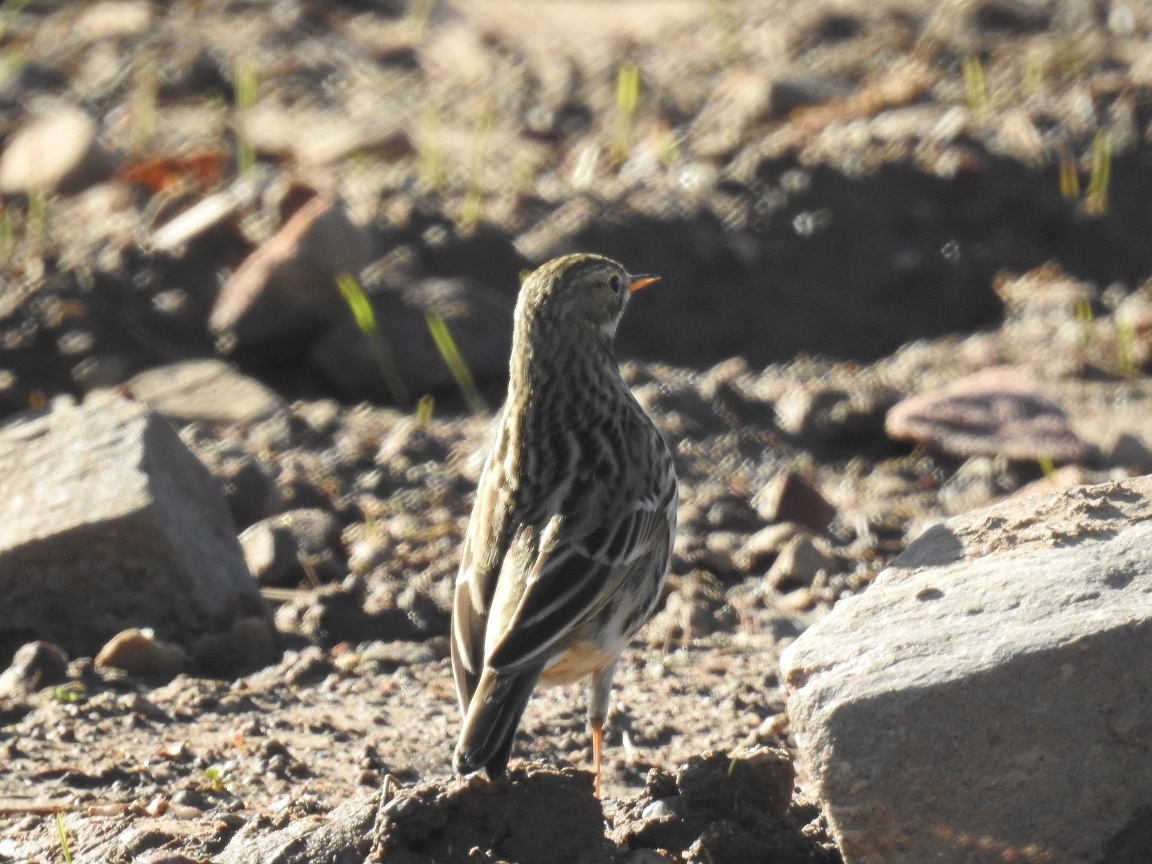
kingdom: Animalia
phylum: Chordata
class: Aves
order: Passeriformes
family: Motacillidae
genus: Anthus
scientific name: Anthus pratensis
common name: Meadow pipit
